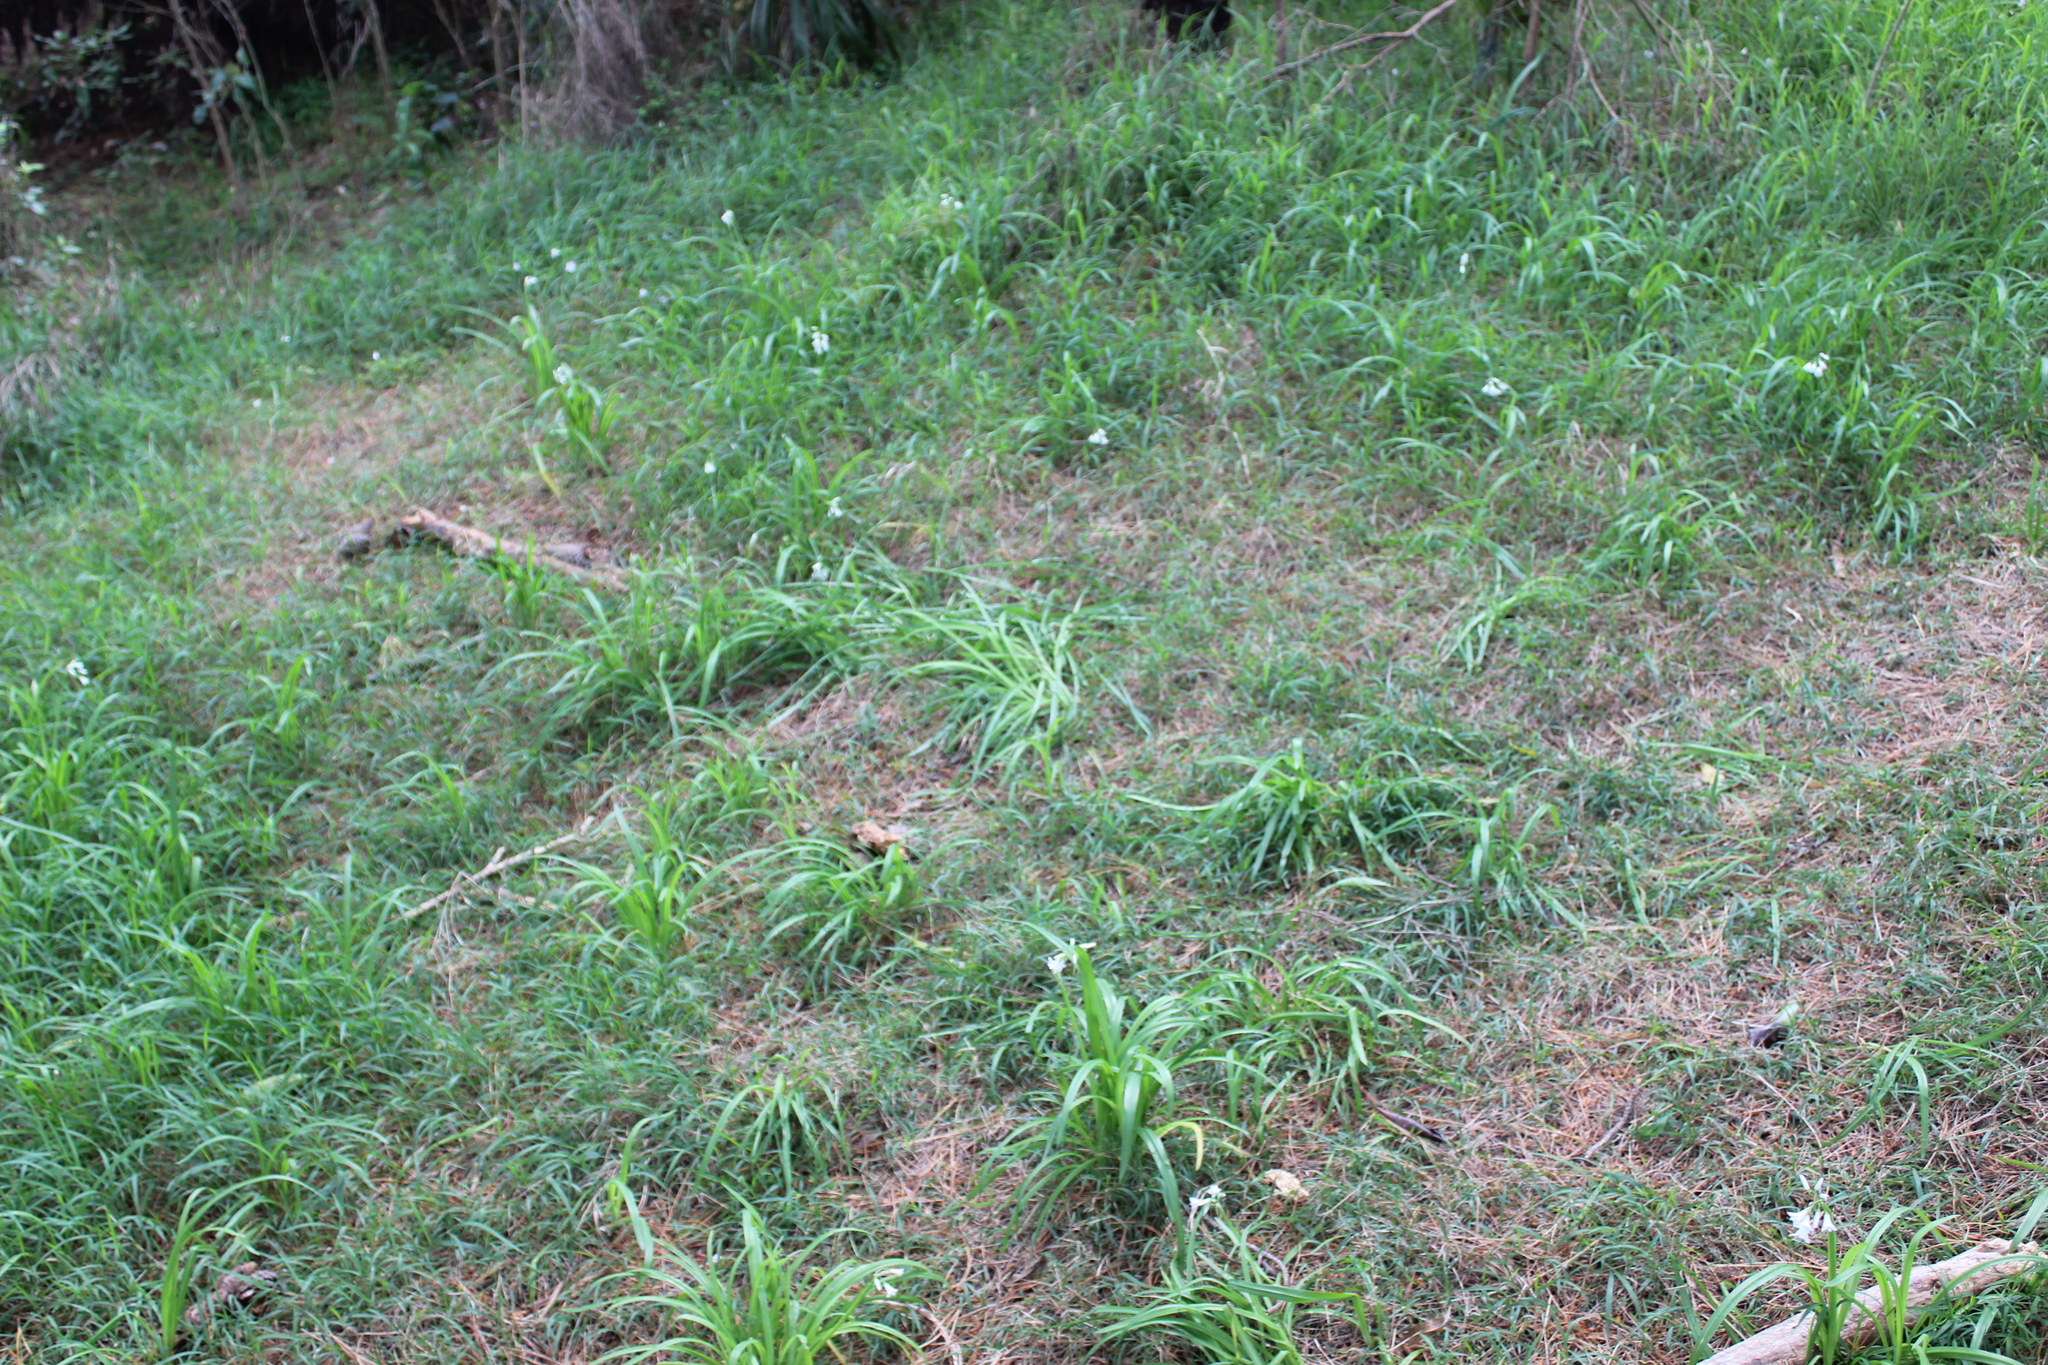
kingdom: Plantae
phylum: Tracheophyta
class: Liliopsida
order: Asparagales
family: Amaryllidaceae
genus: Allium
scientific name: Allium triquetrum
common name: Three-cornered garlic
